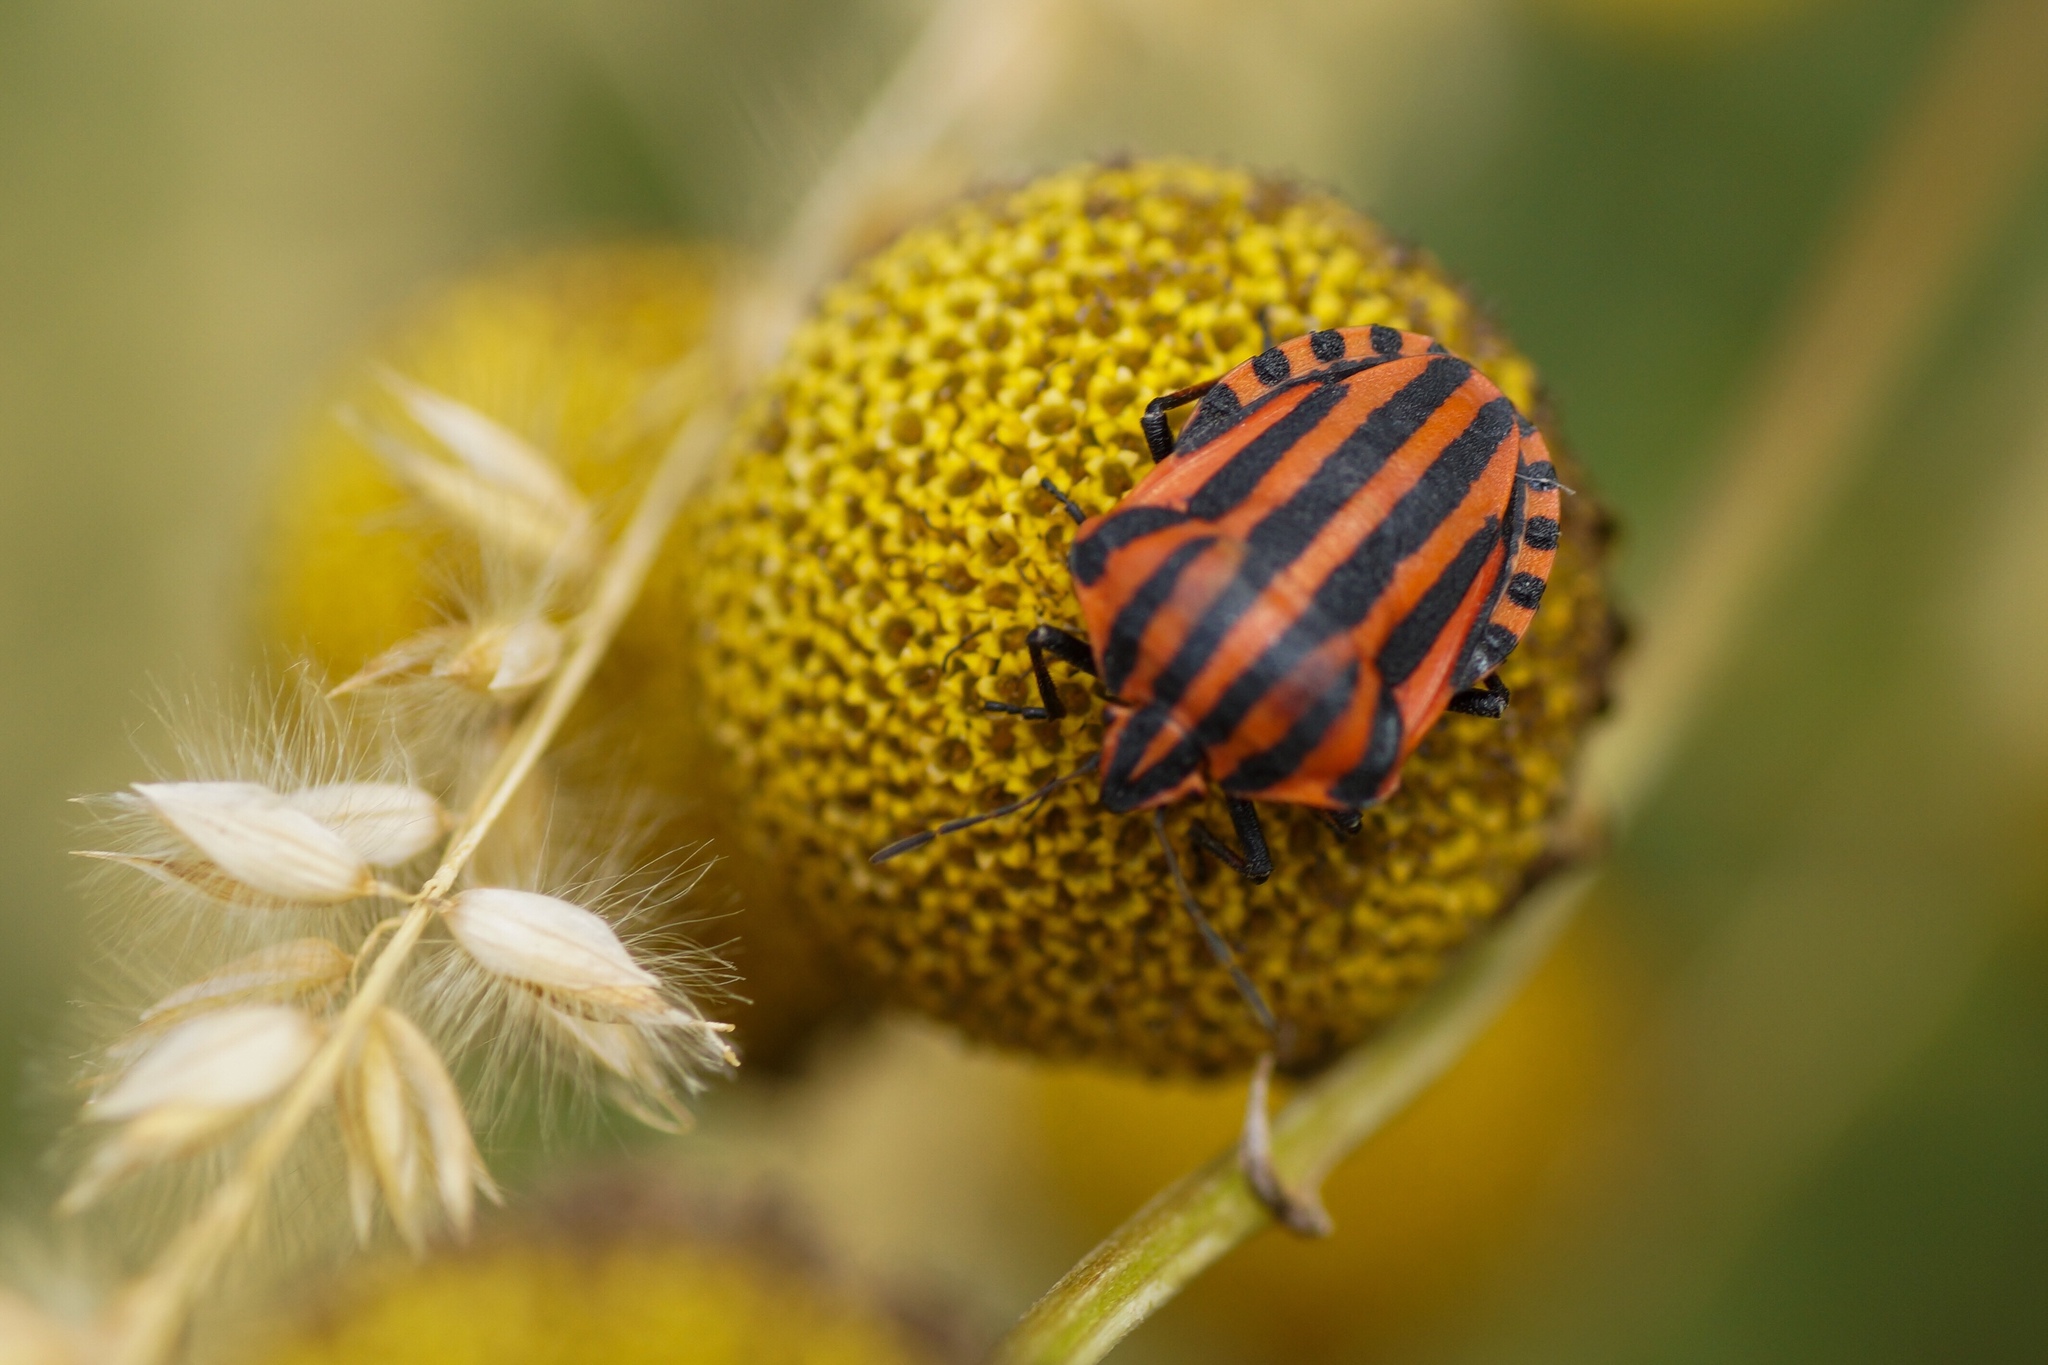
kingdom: Animalia
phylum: Arthropoda
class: Insecta
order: Hemiptera
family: Pentatomidae
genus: Graphosoma
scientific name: Graphosoma italicum
